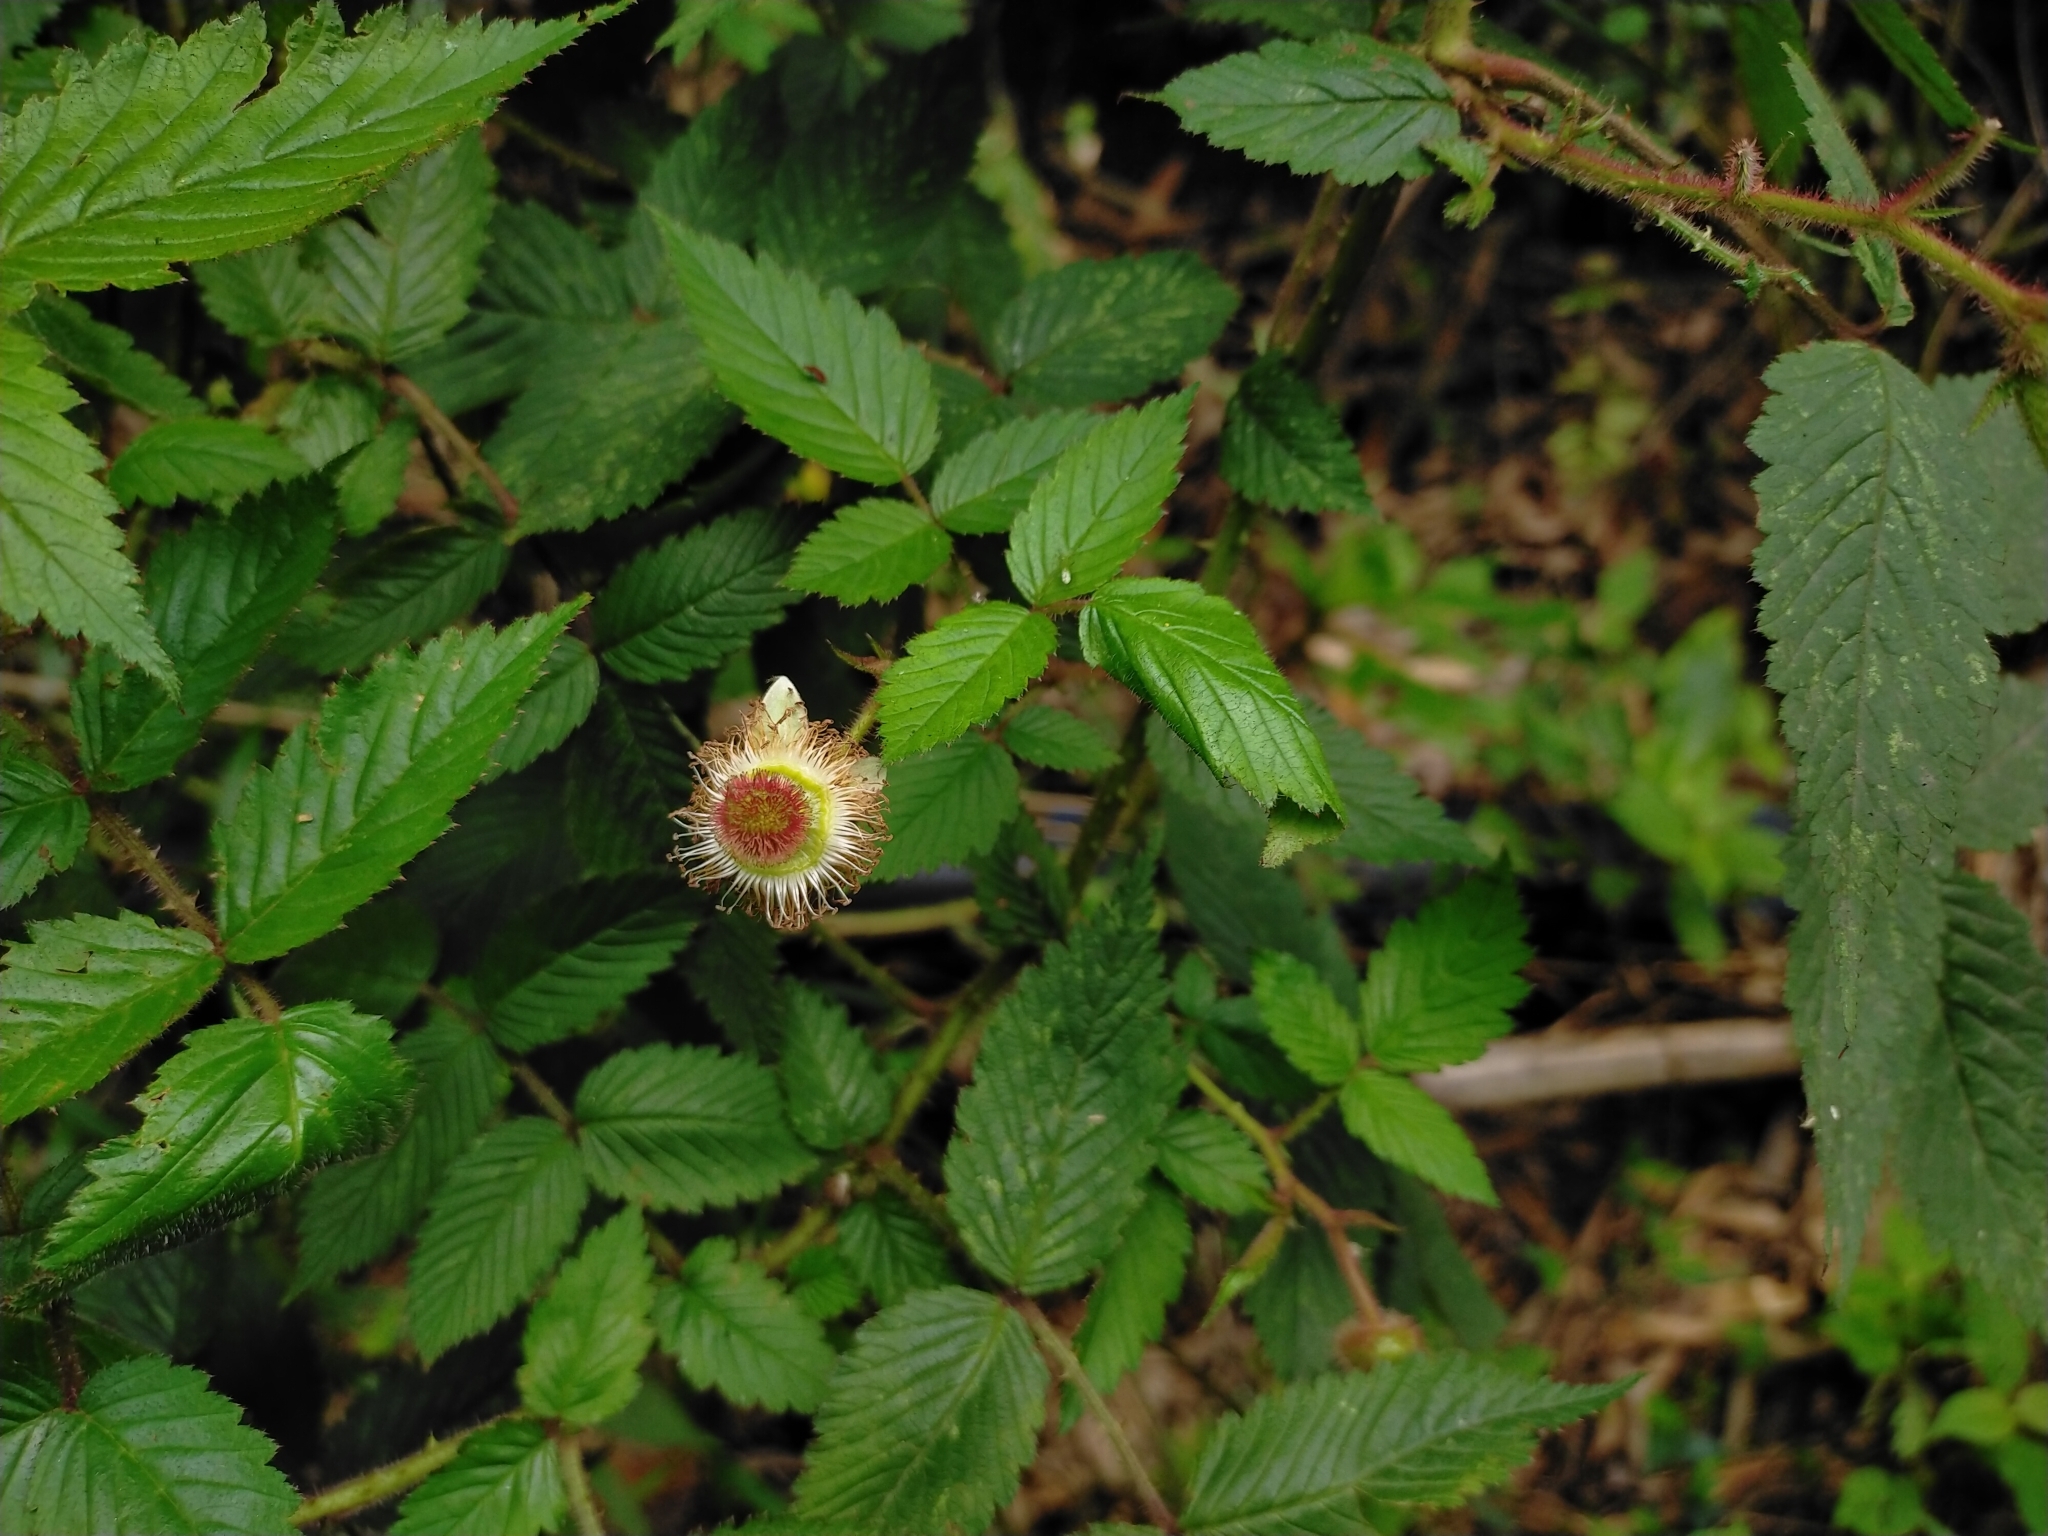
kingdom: Plantae
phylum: Tracheophyta
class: Magnoliopsida
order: Rosales
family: Rosaceae
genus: Rubus
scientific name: Rubus croceacanthus
